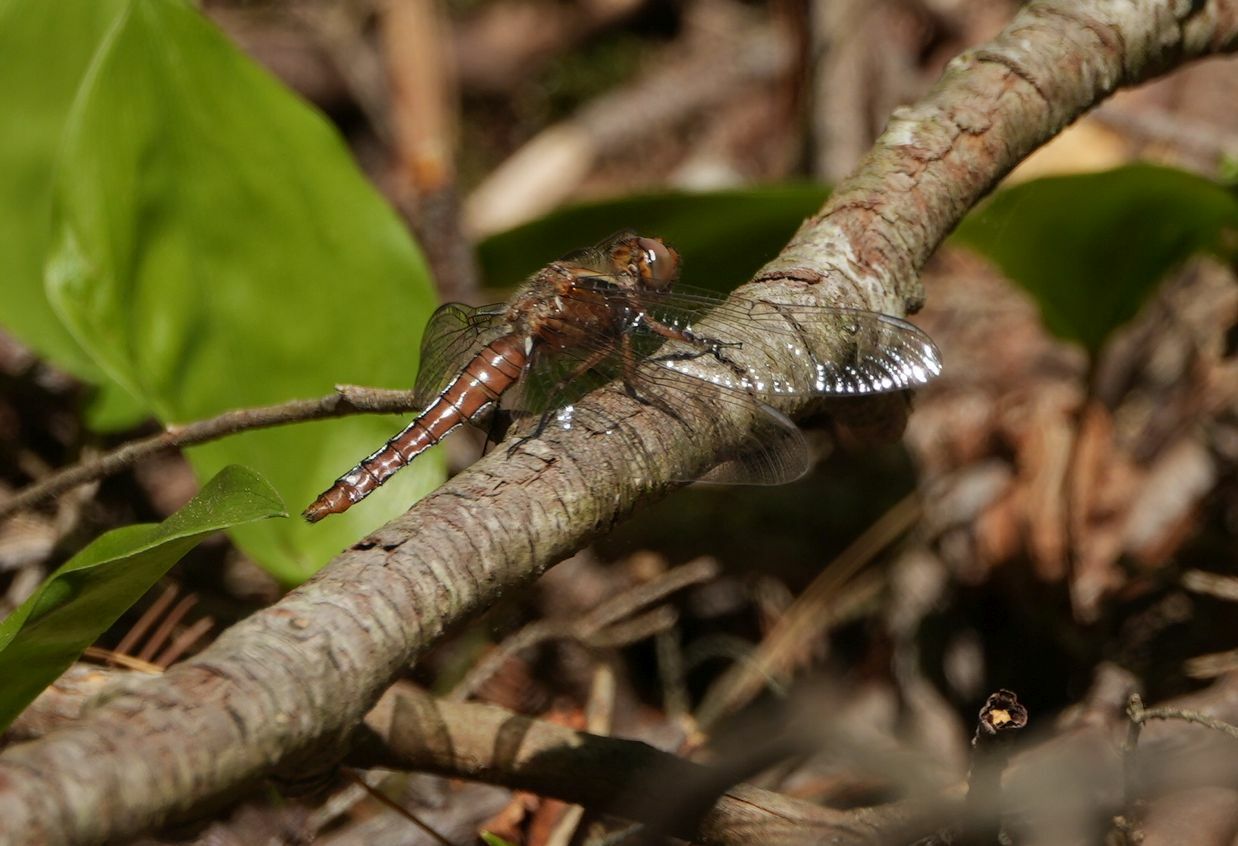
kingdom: Animalia
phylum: Arthropoda
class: Insecta
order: Odonata
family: Libellulidae
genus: Ladona
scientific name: Ladona julia
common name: Chalk-fronted corporal
